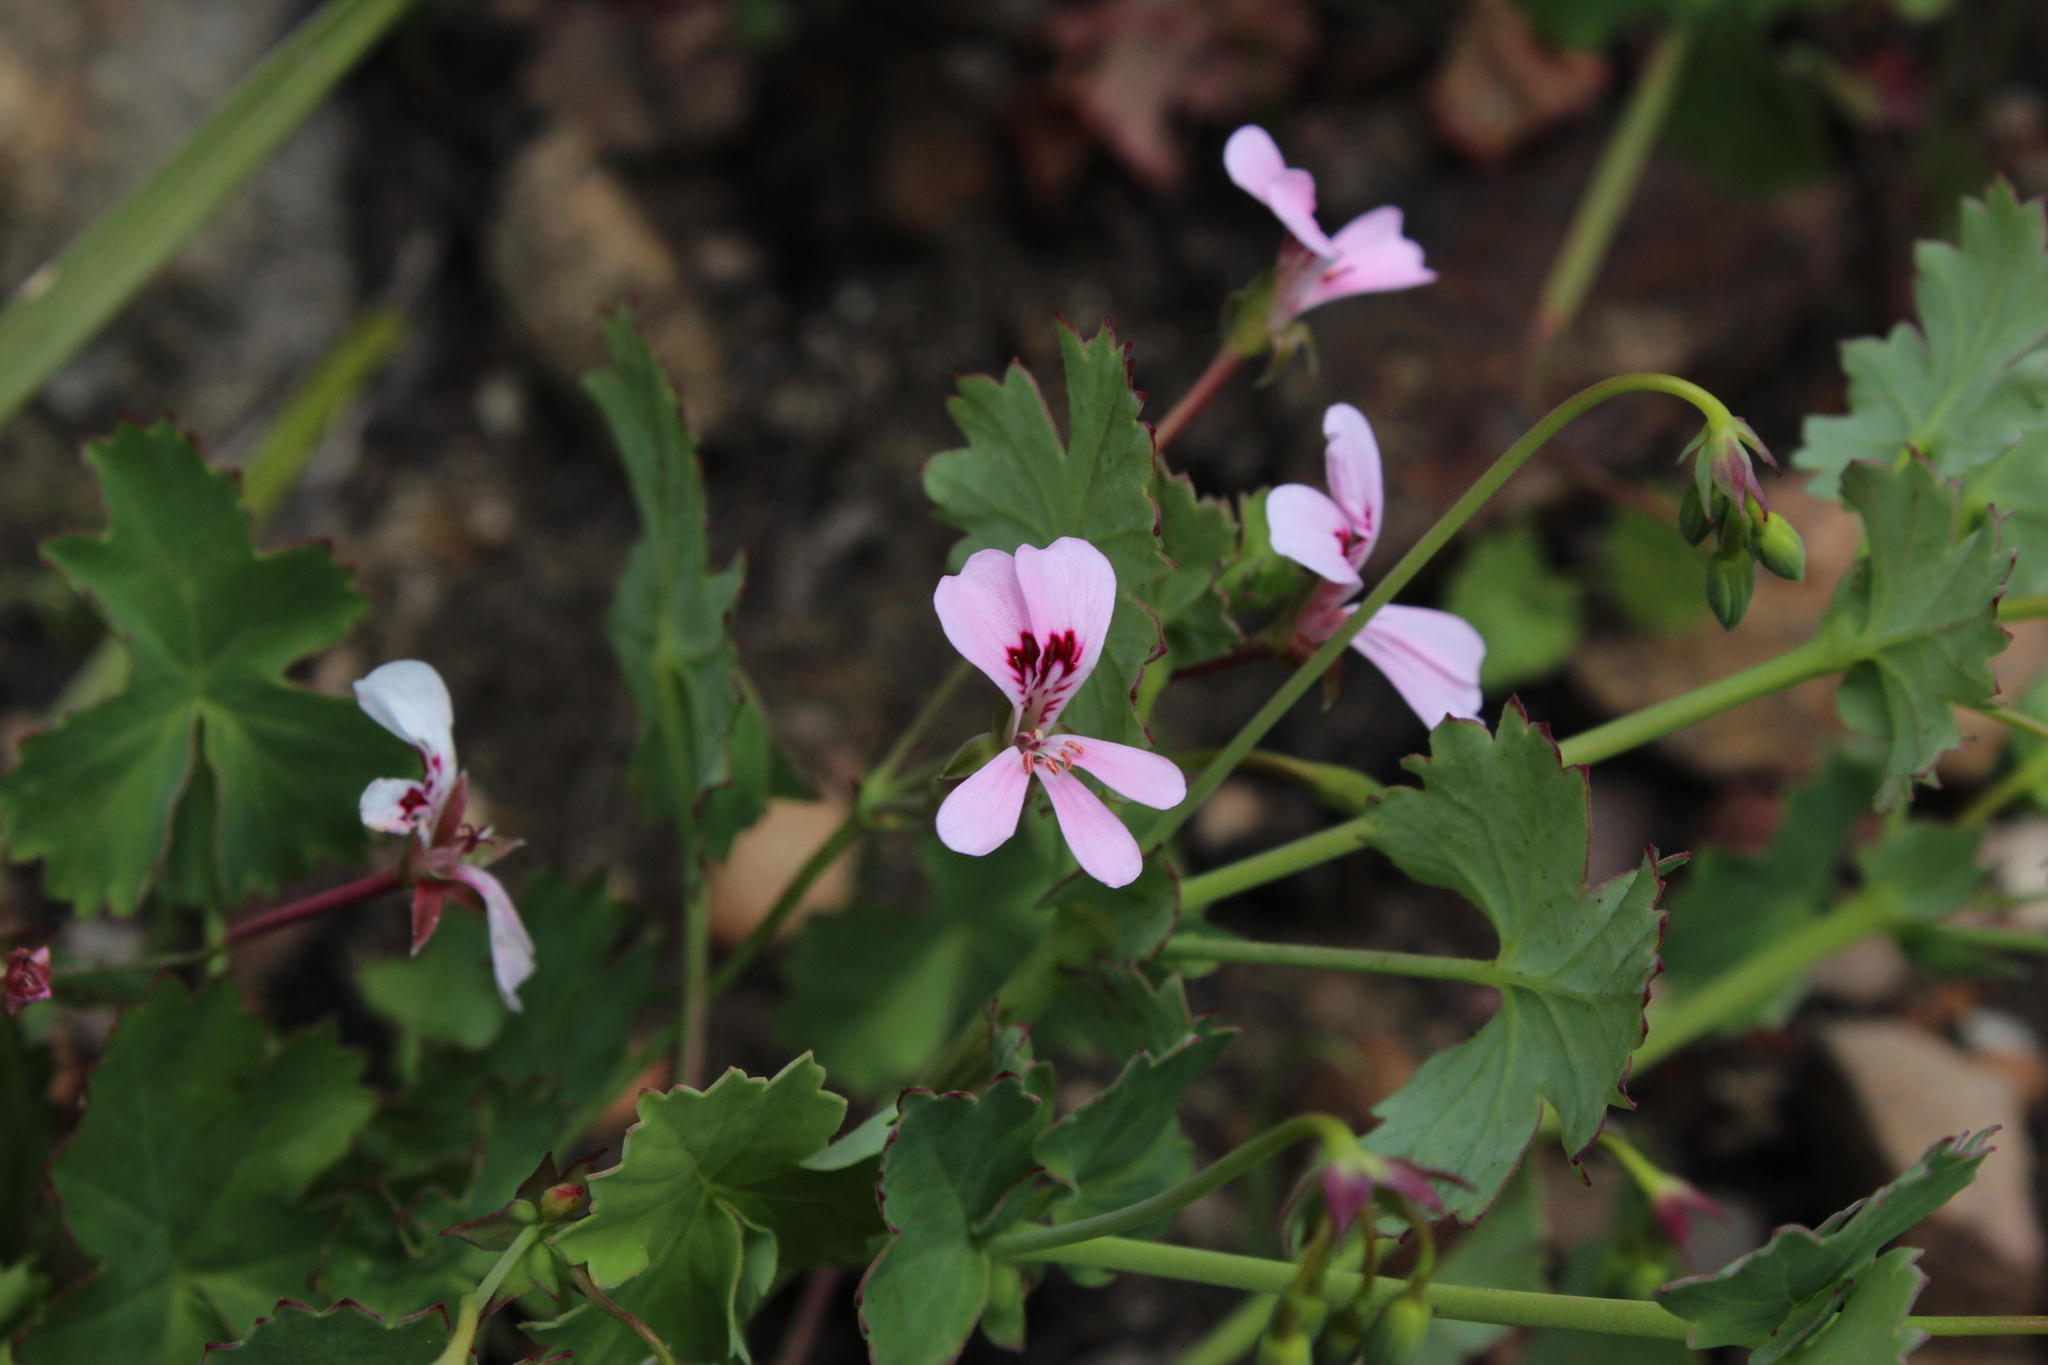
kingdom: Plantae
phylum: Tracheophyta
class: Magnoliopsida
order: Geraniales
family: Geraniaceae
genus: Pelargonium
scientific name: Pelargonium patulum
